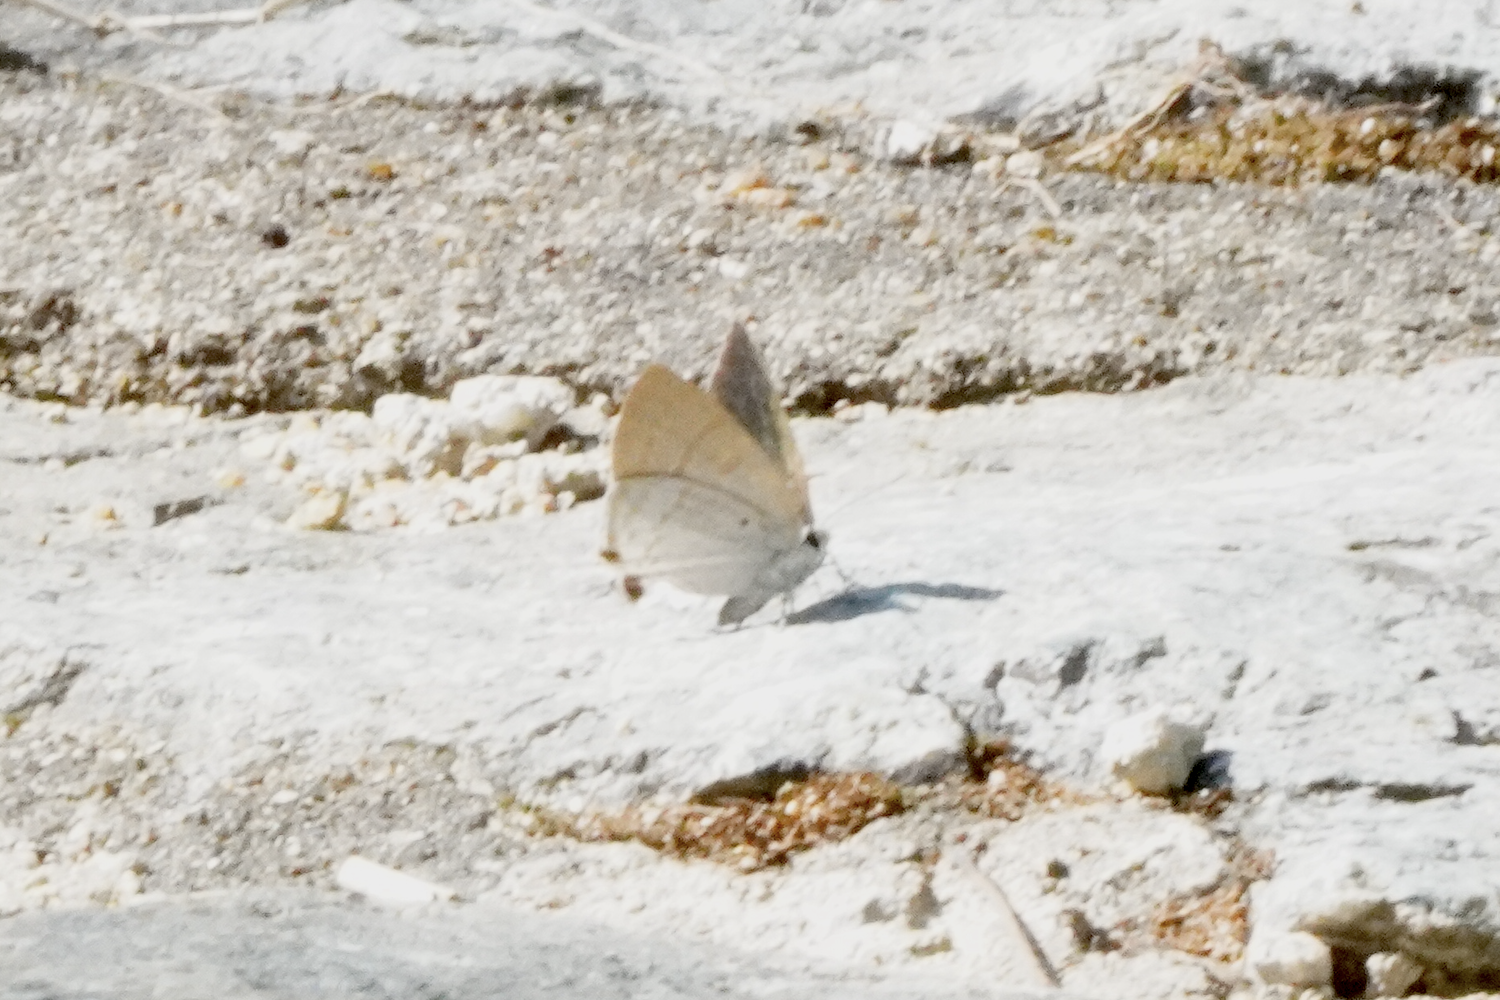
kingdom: Animalia
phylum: Arthropoda
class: Insecta
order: Lepidoptera
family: Lycaenidae
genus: Zeltus
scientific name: Zeltus amasa
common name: Fluffy tit
